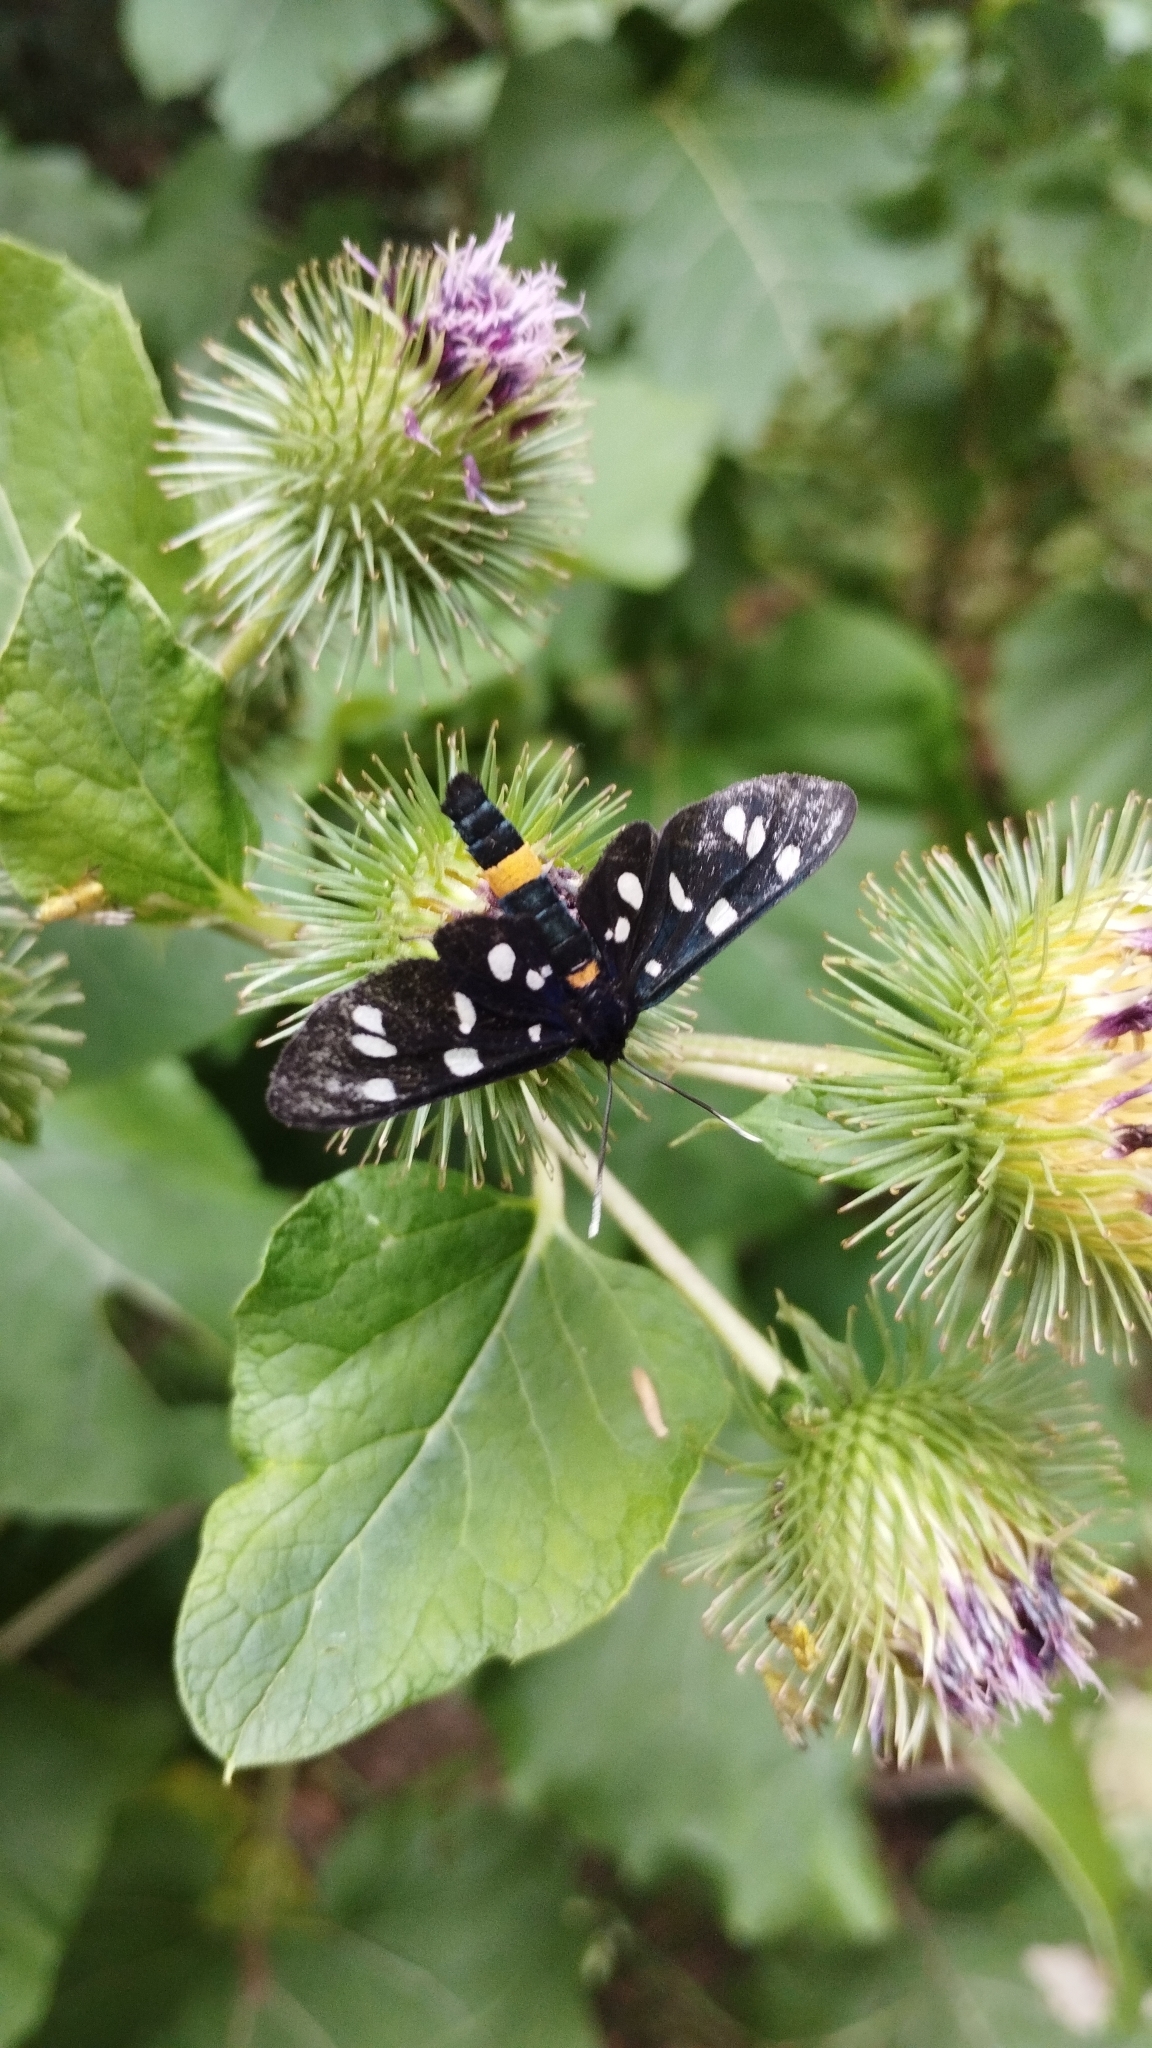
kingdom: Animalia
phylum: Arthropoda
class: Insecta
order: Lepidoptera
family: Erebidae
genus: Amata
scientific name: Amata phegea
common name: Nine-spotted
